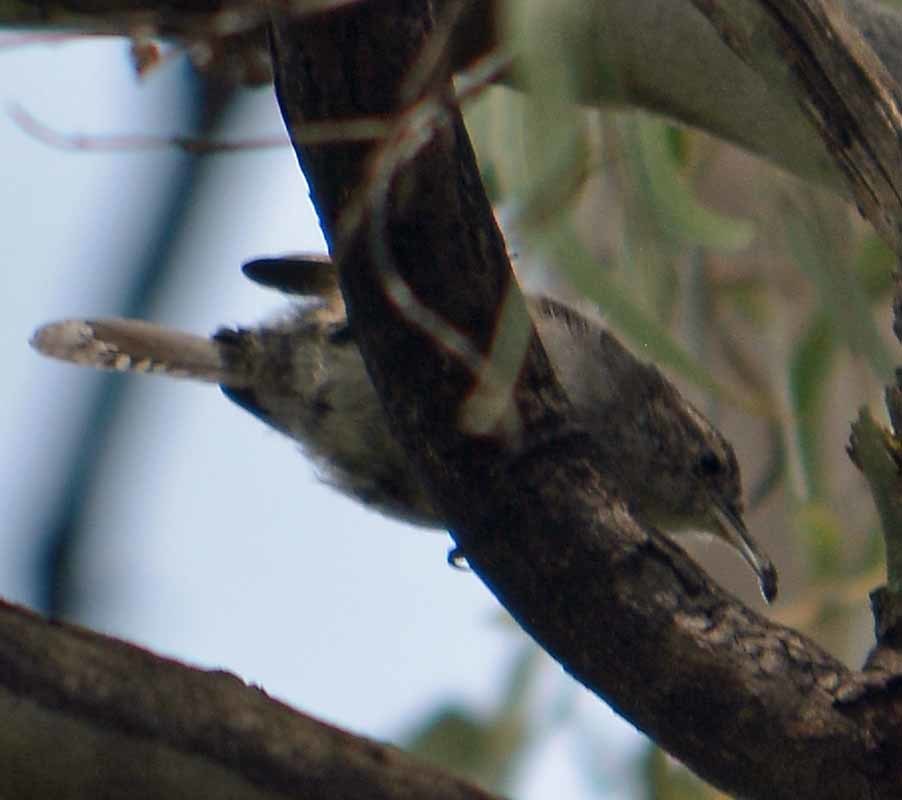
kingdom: Animalia
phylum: Chordata
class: Aves
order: Passeriformes
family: Troglodytidae
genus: Thryomanes
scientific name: Thryomanes bewickii
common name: Bewick's wren
